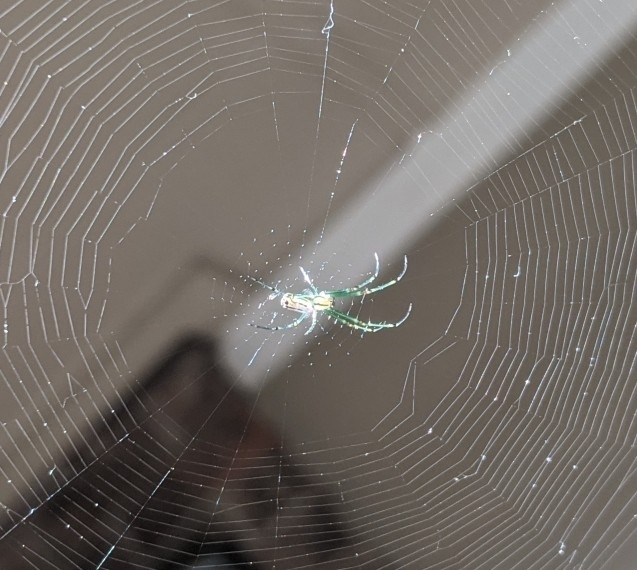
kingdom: Animalia
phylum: Arthropoda
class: Arachnida
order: Araneae
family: Tetragnathidae
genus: Leucauge
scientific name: Leucauge venusta
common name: Longjawed orb weavers
